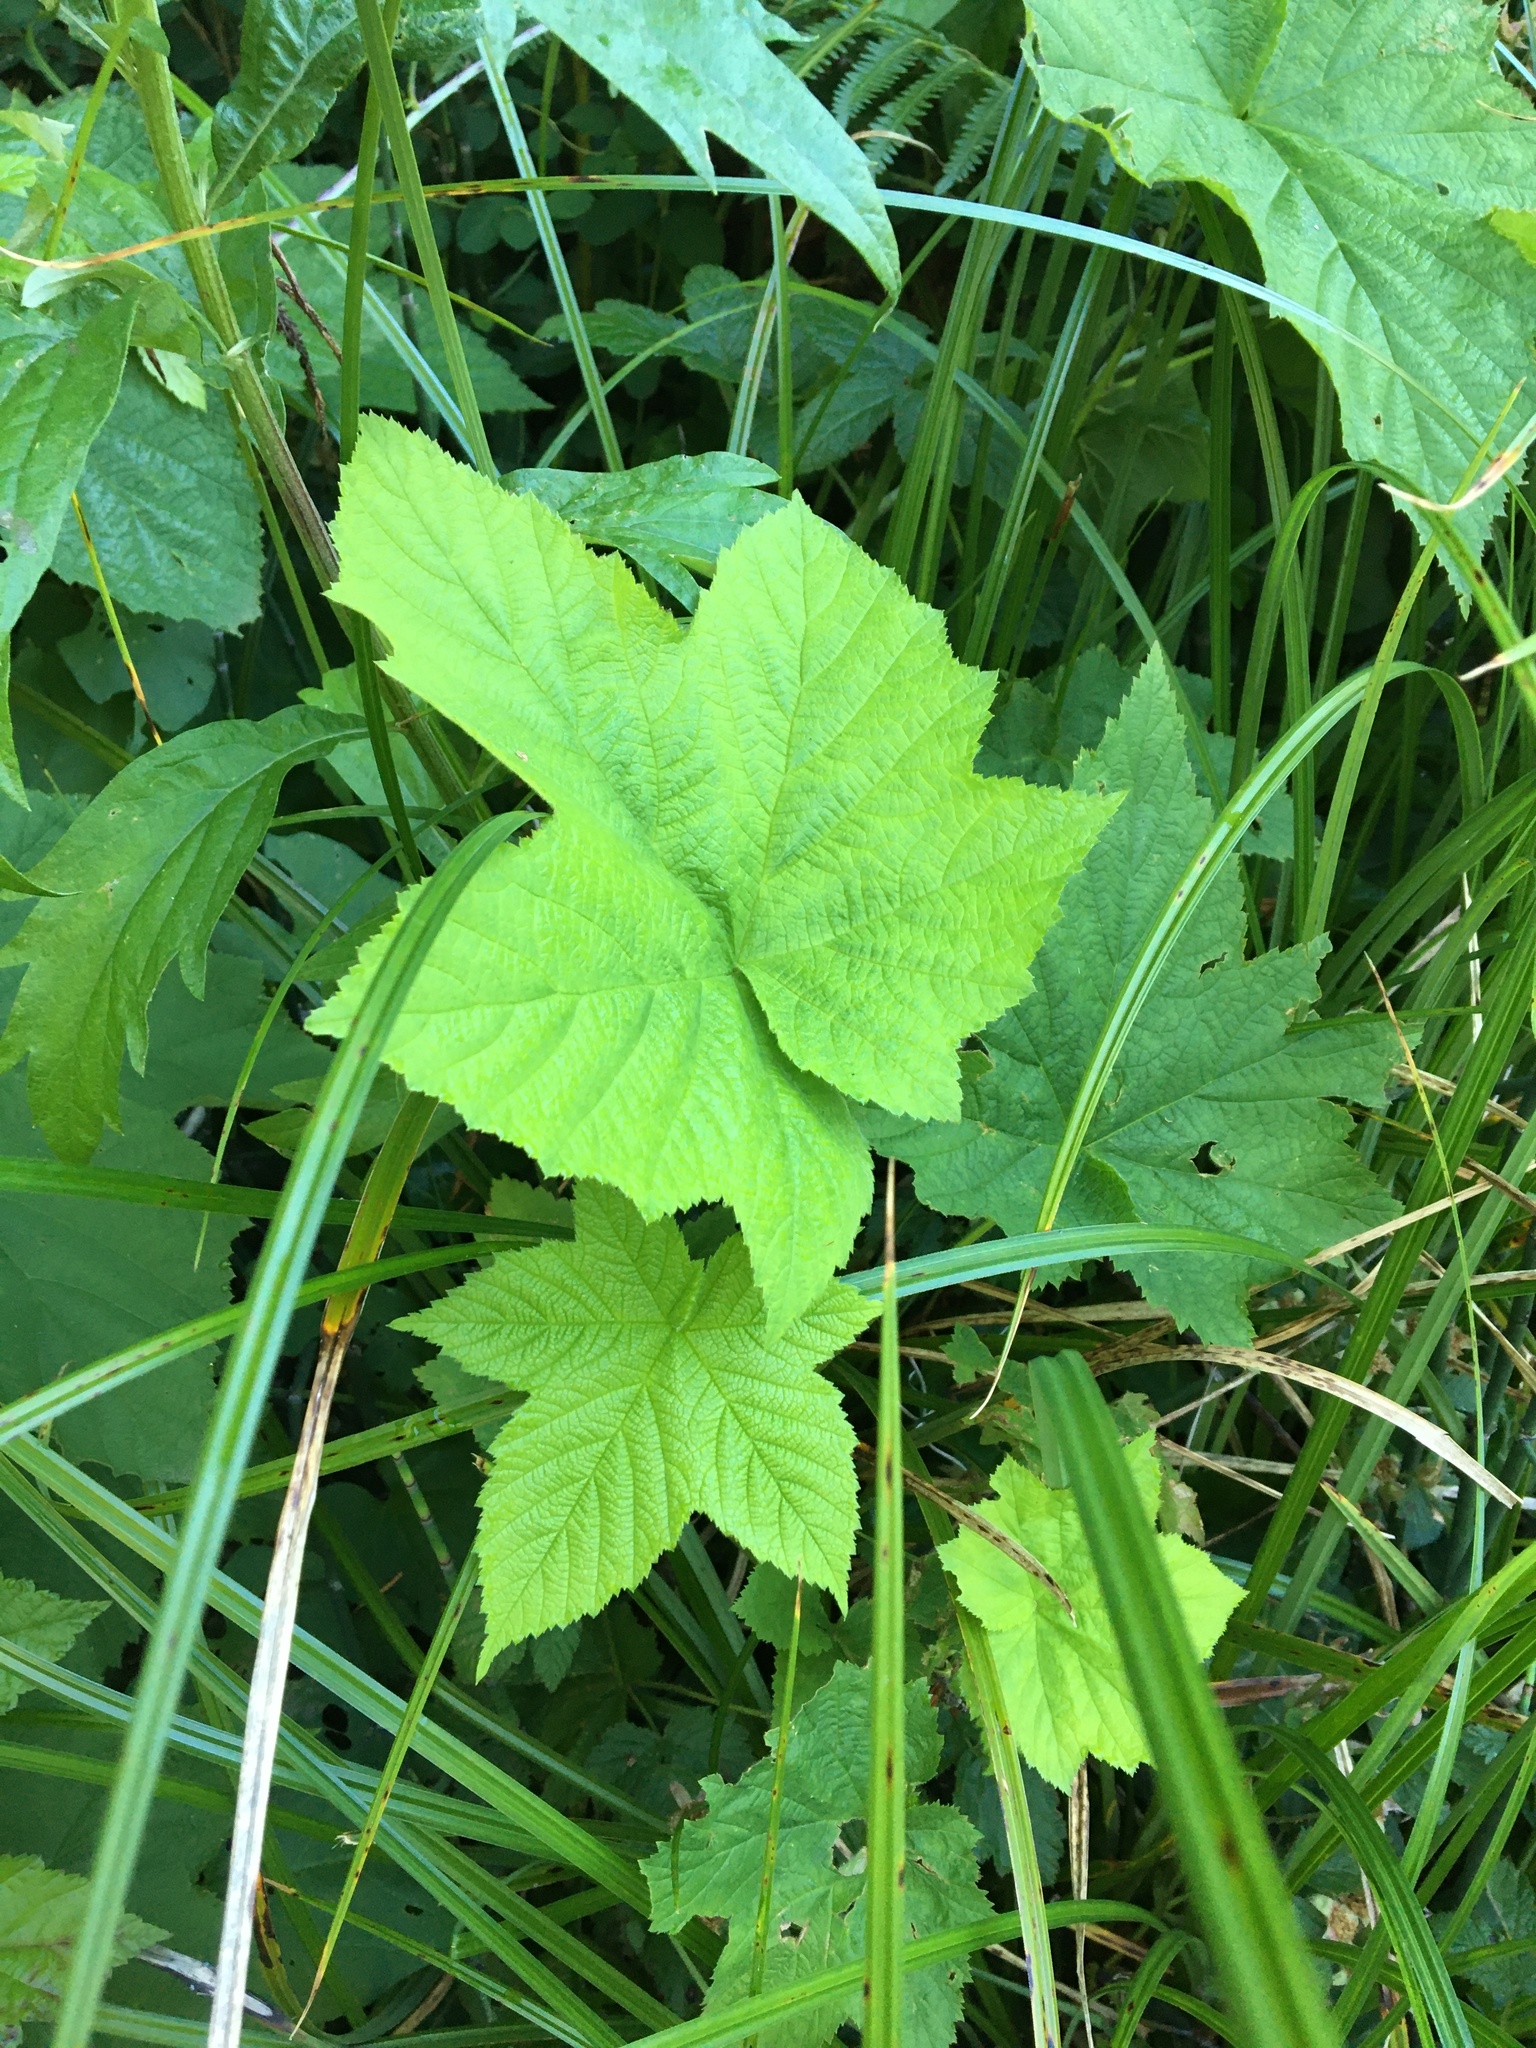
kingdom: Plantae
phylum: Tracheophyta
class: Magnoliopsida
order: Rosales
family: Rosaceae
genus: Rubus
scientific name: Rubus parviflorus
